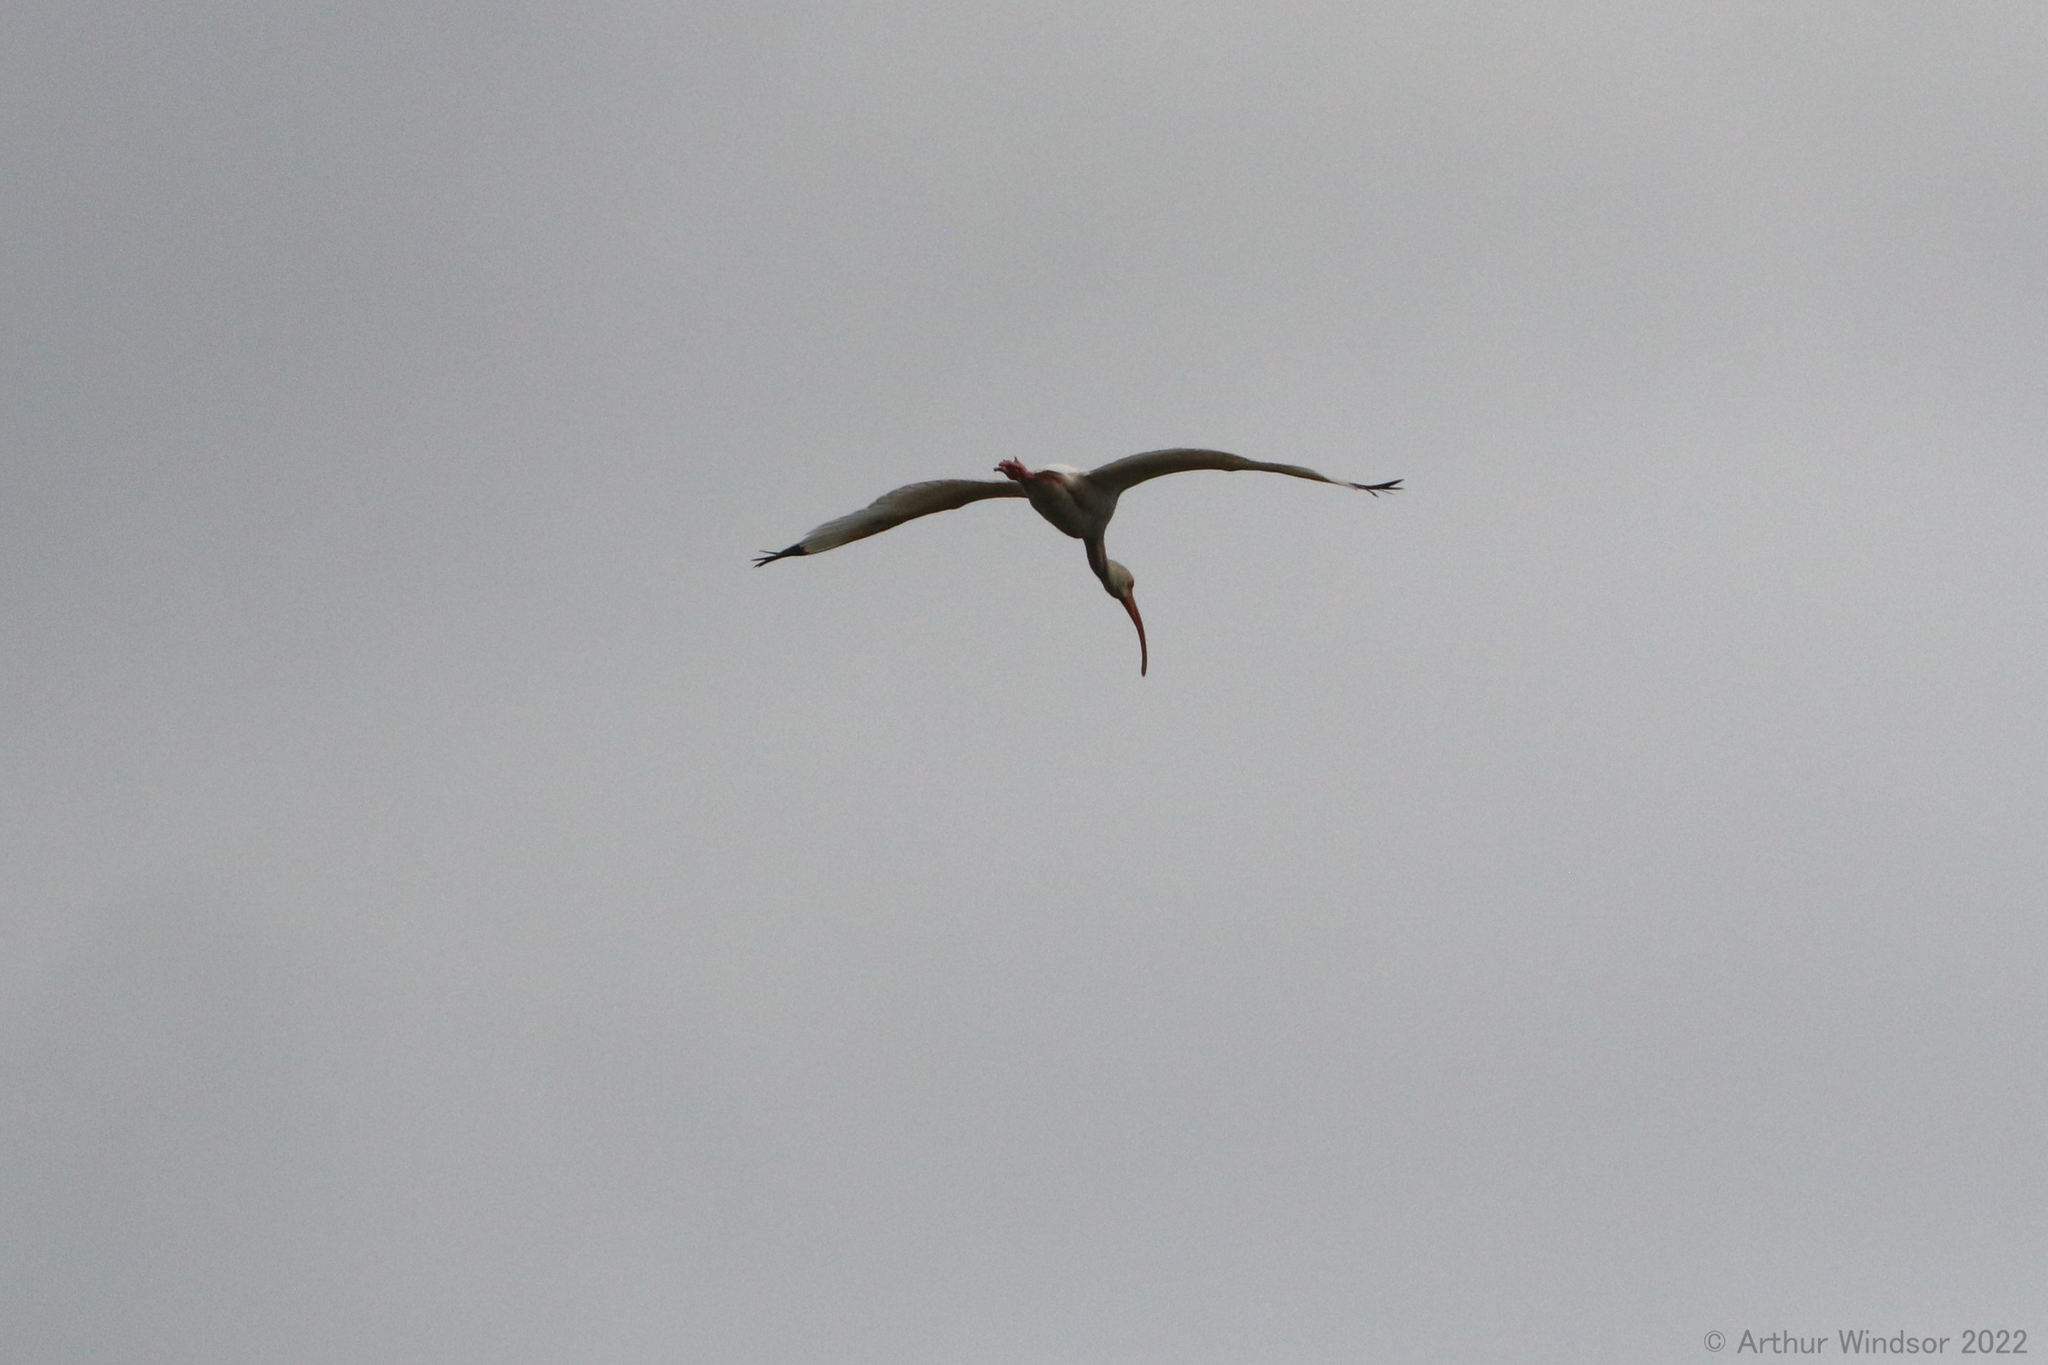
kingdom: Animalia
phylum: Chordata
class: Aves
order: Pelecaniformes
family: Threskiornithidae
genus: Eudocimus
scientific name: Eudocimus albus
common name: White ibis
